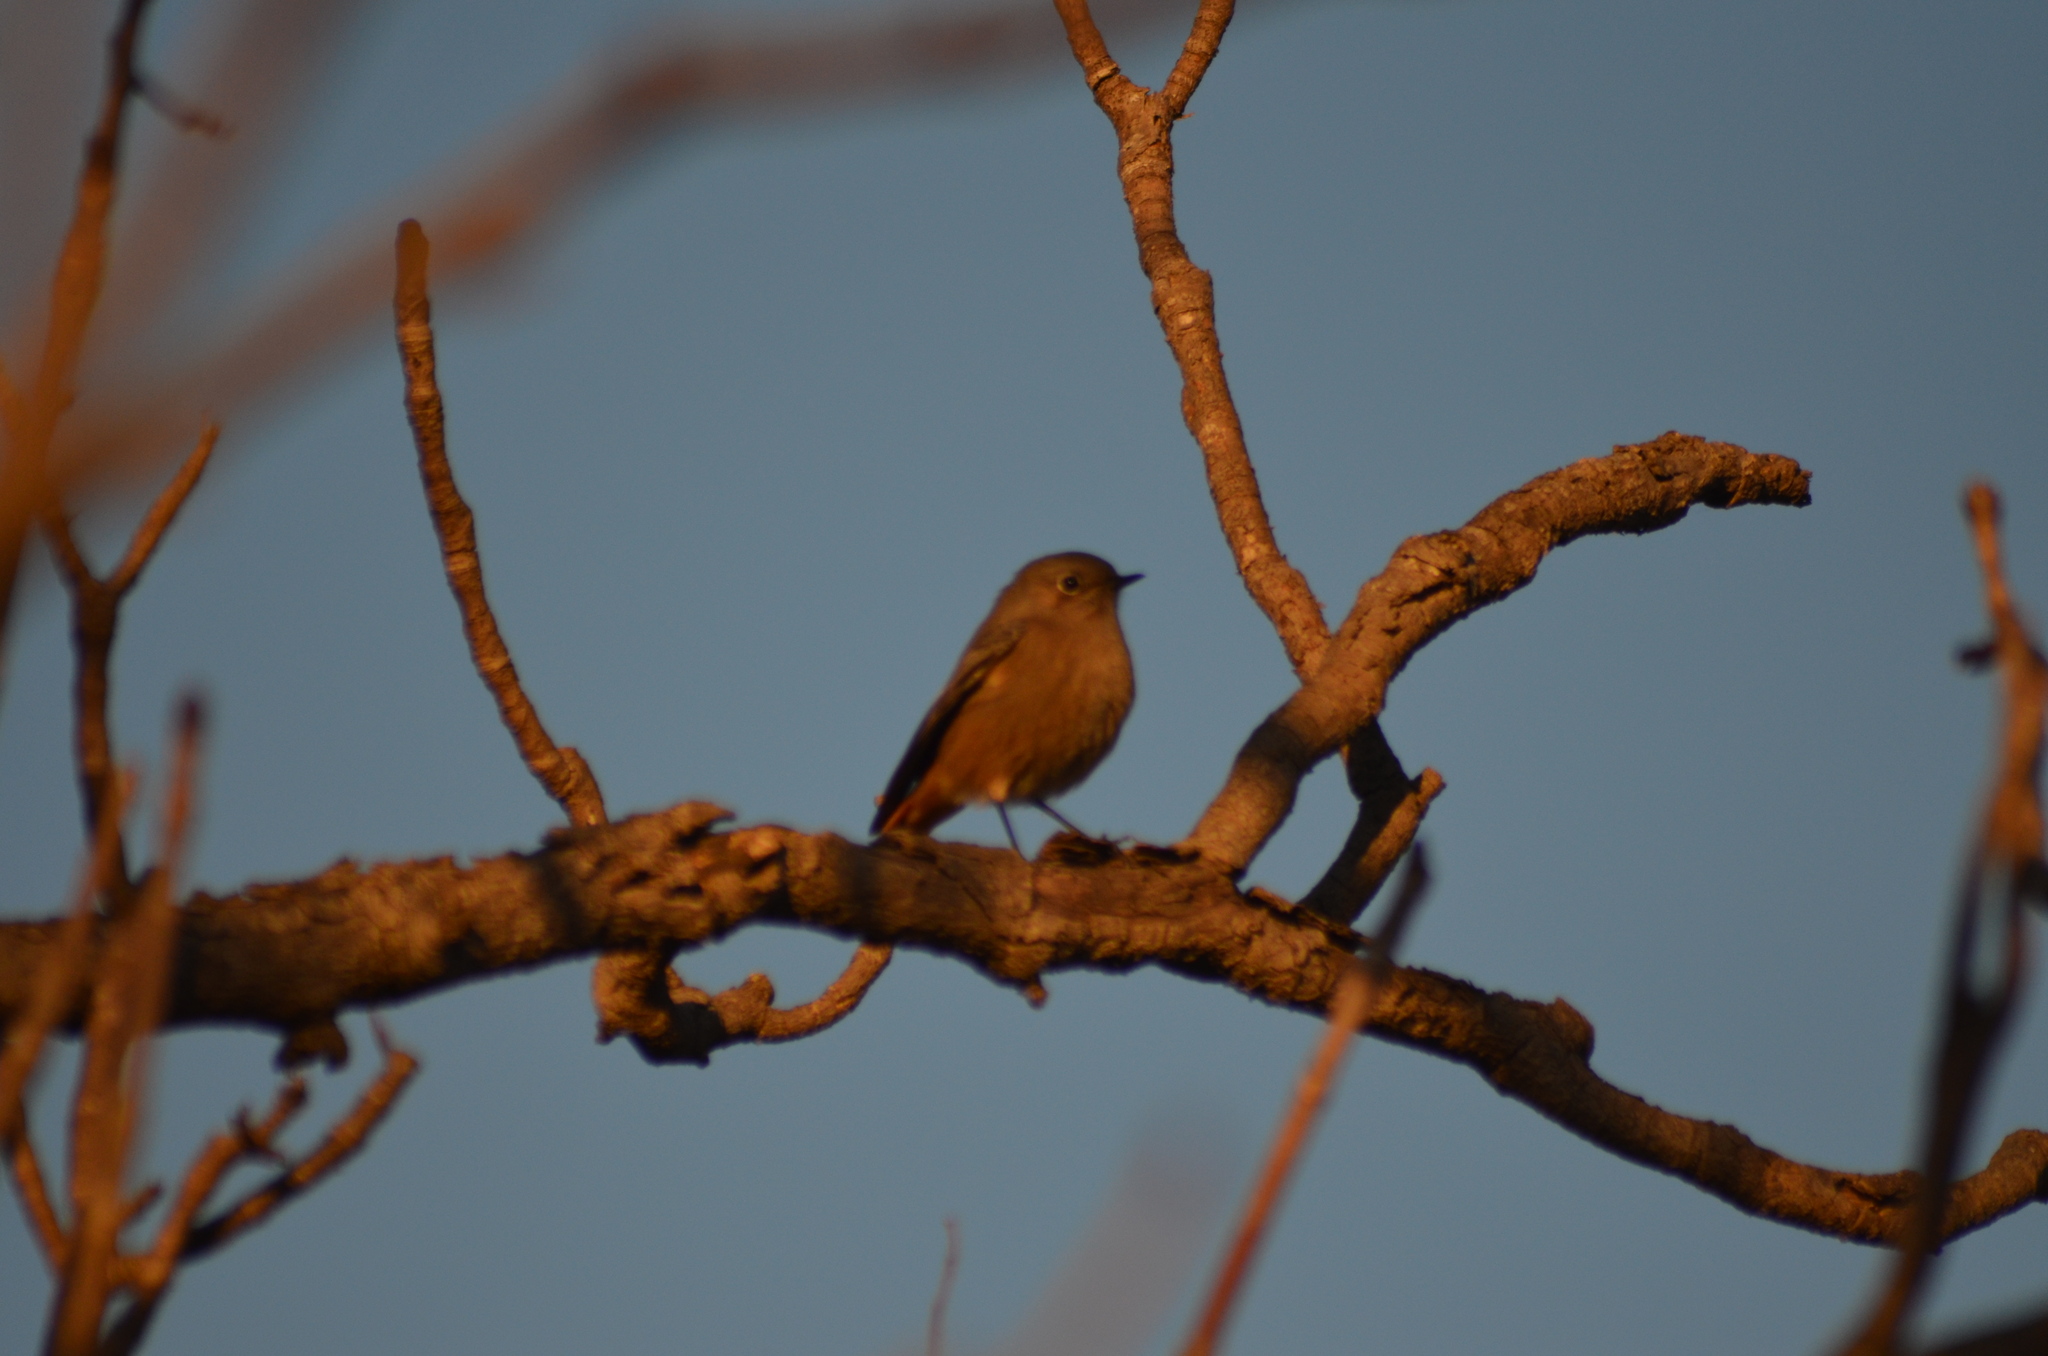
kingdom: Animalia
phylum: Chordata
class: Aves
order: Passeriformes
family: Muscicapidae
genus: Phoenicurus
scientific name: Phoenicurus ochruros
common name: Black redstart
